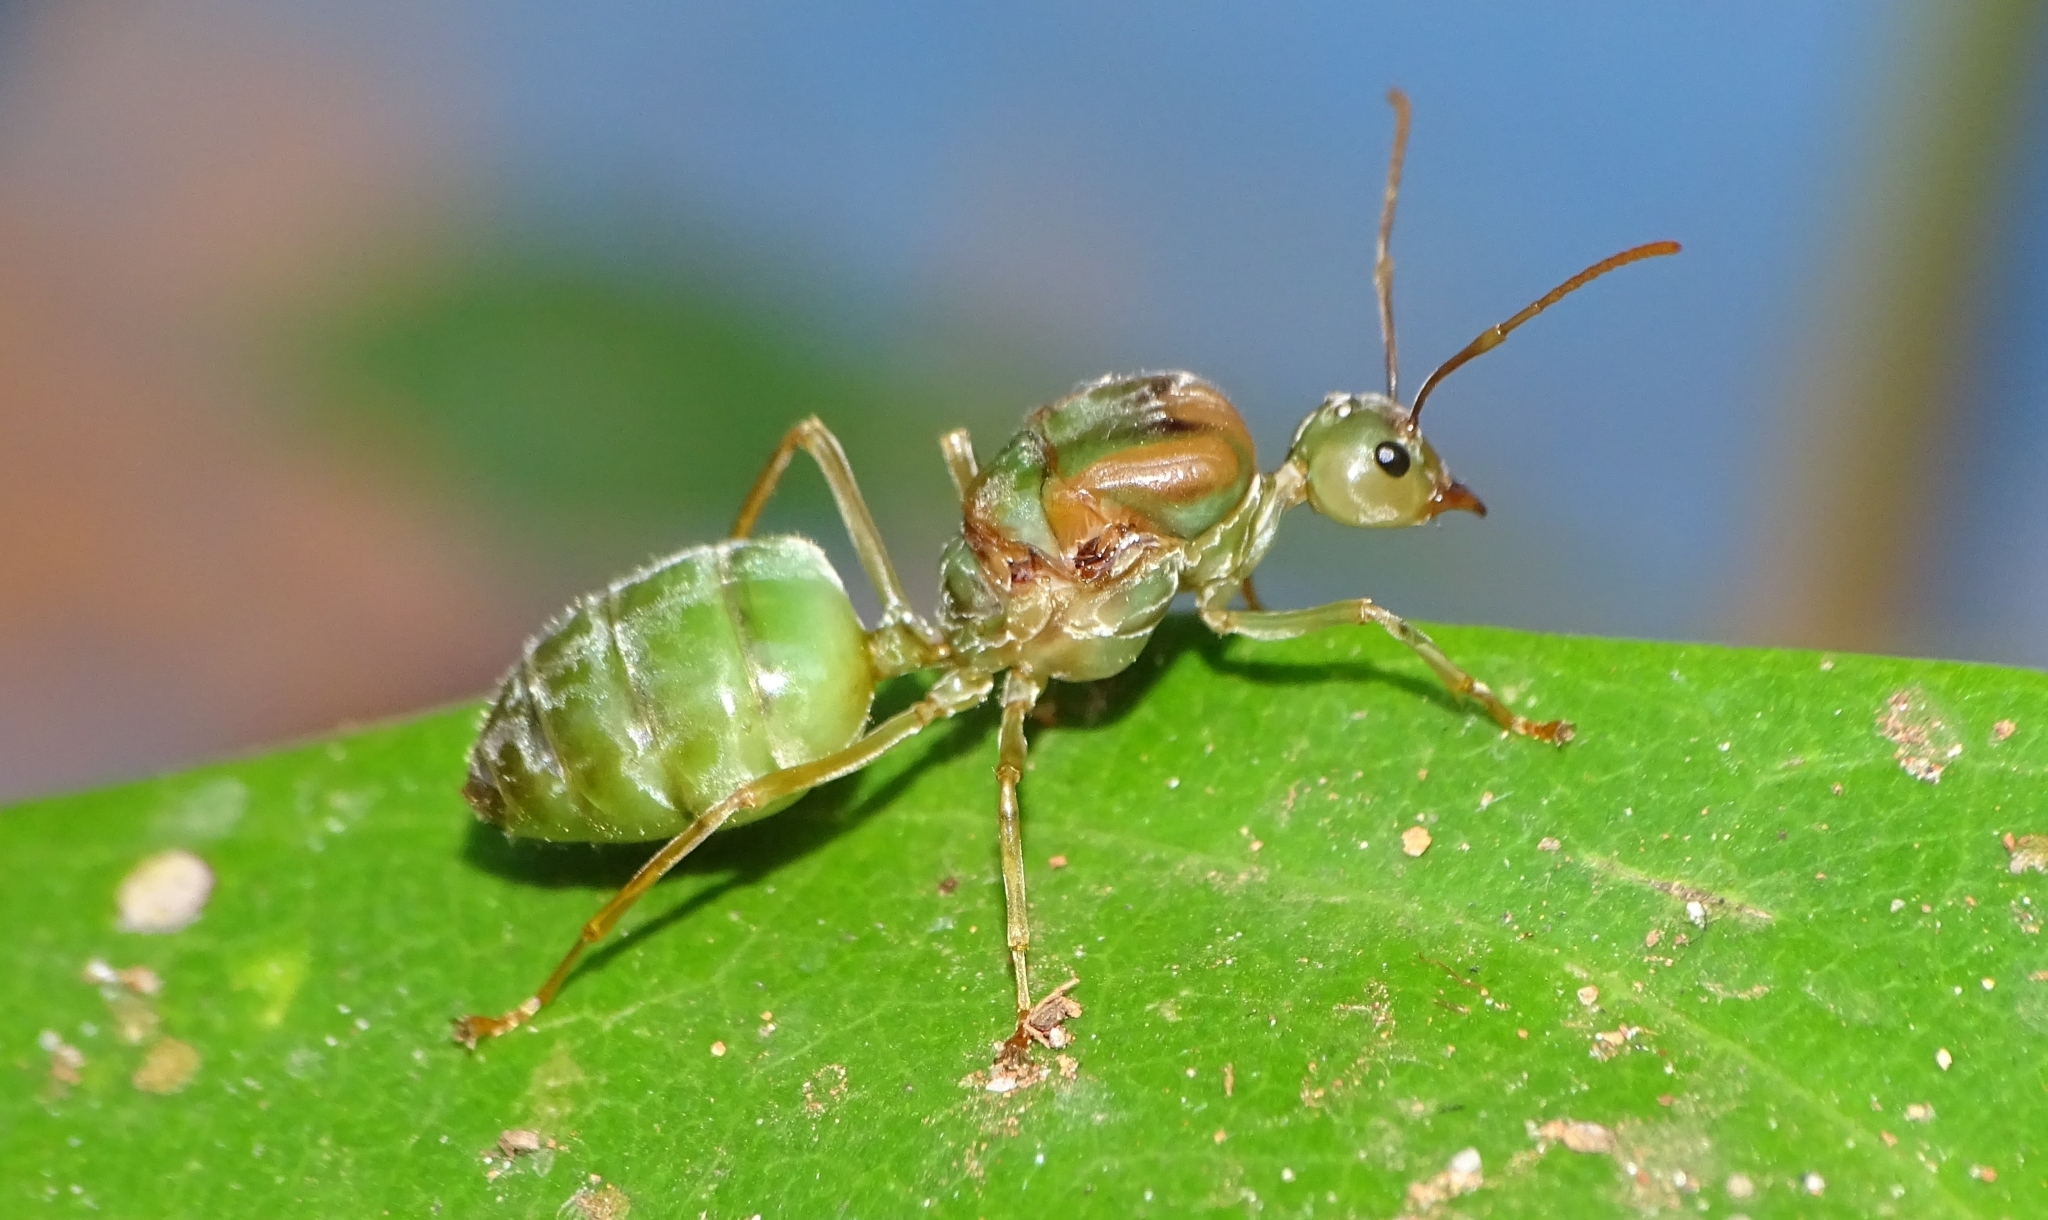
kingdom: Animalia
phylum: Arthropoda
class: Insecta
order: Hymenoptera
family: Formicidae
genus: Oecophylla
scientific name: Oecophylla smaragdina
